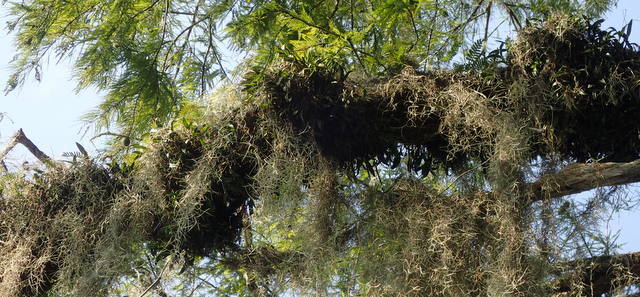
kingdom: Plantae
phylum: Tracheophyta
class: Liliopsida
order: Asparagales
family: Orchidaceae
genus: Epidendrum
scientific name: Epidendrum conopseum
